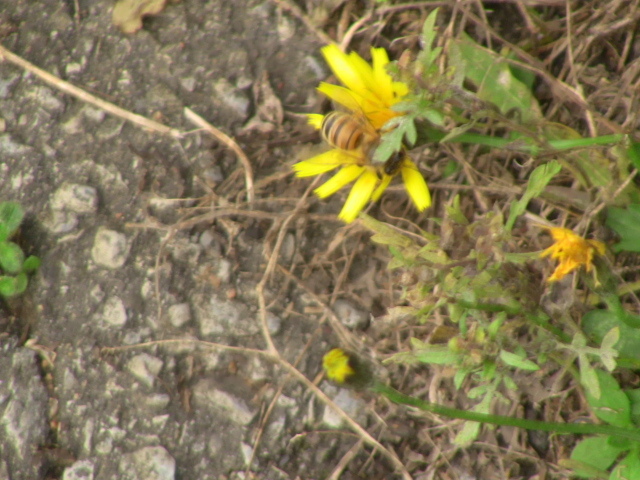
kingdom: Animalia
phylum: Arthropoda
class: Insecta
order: Hymenoptera
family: Apidae
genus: Apis
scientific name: Apis mellifera
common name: Honey bee
